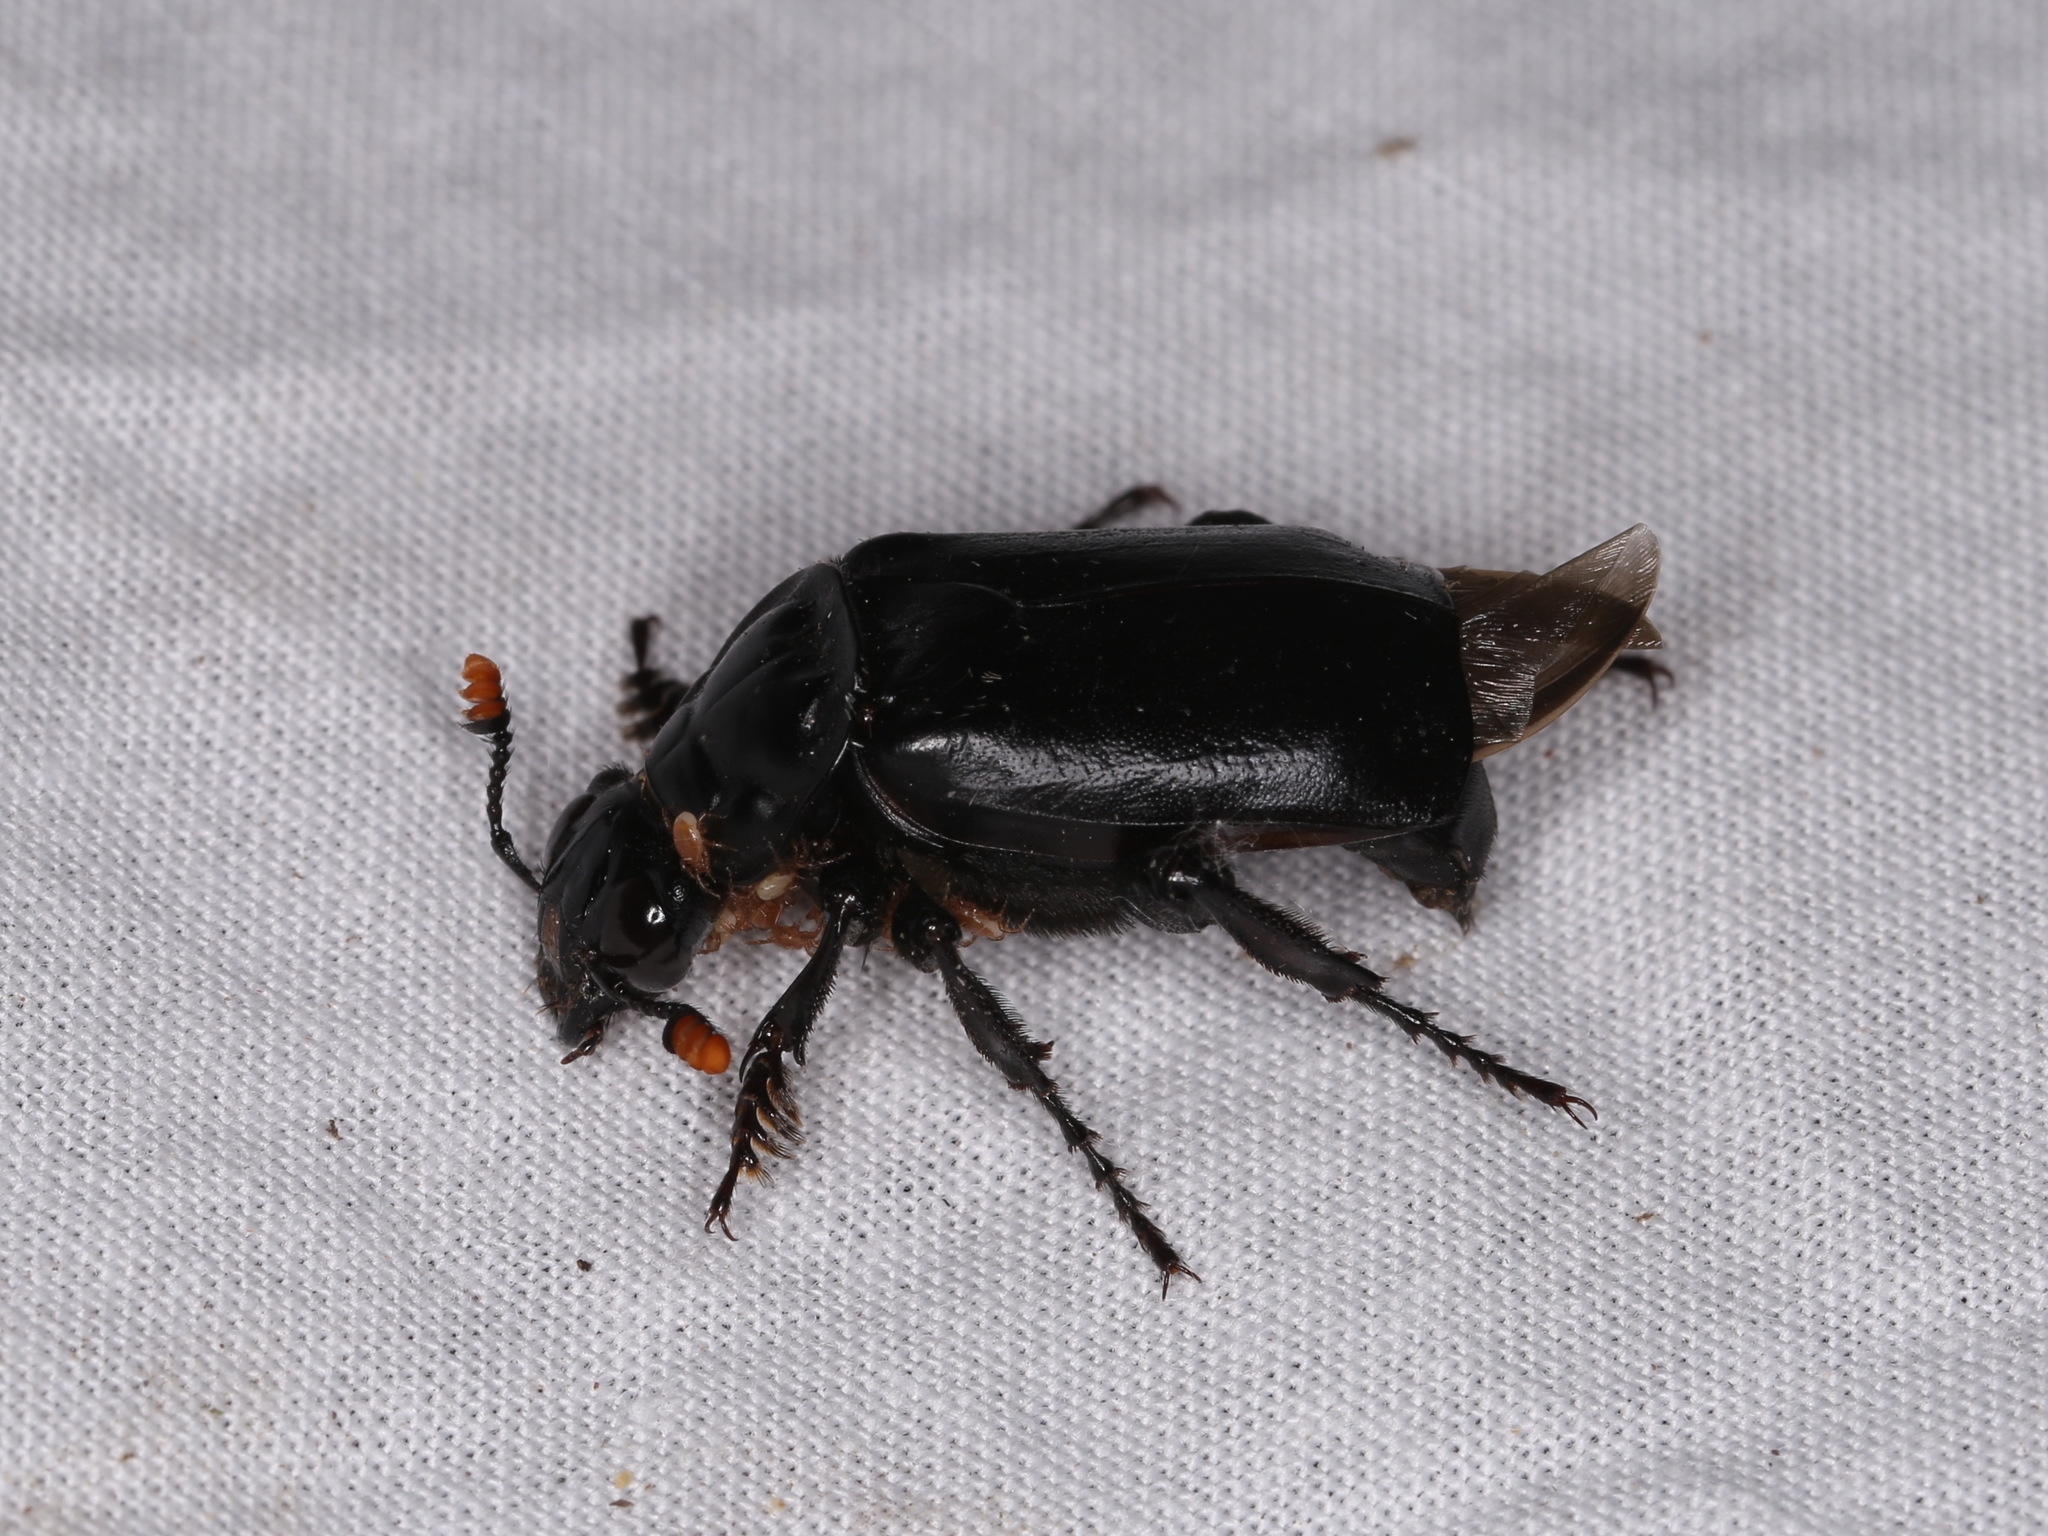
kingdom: Animalia
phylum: Arthropoda
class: Insecta
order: Coleoptera
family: Staphylinidae
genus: Nicrophorus
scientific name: Nicrophorus nigrita
